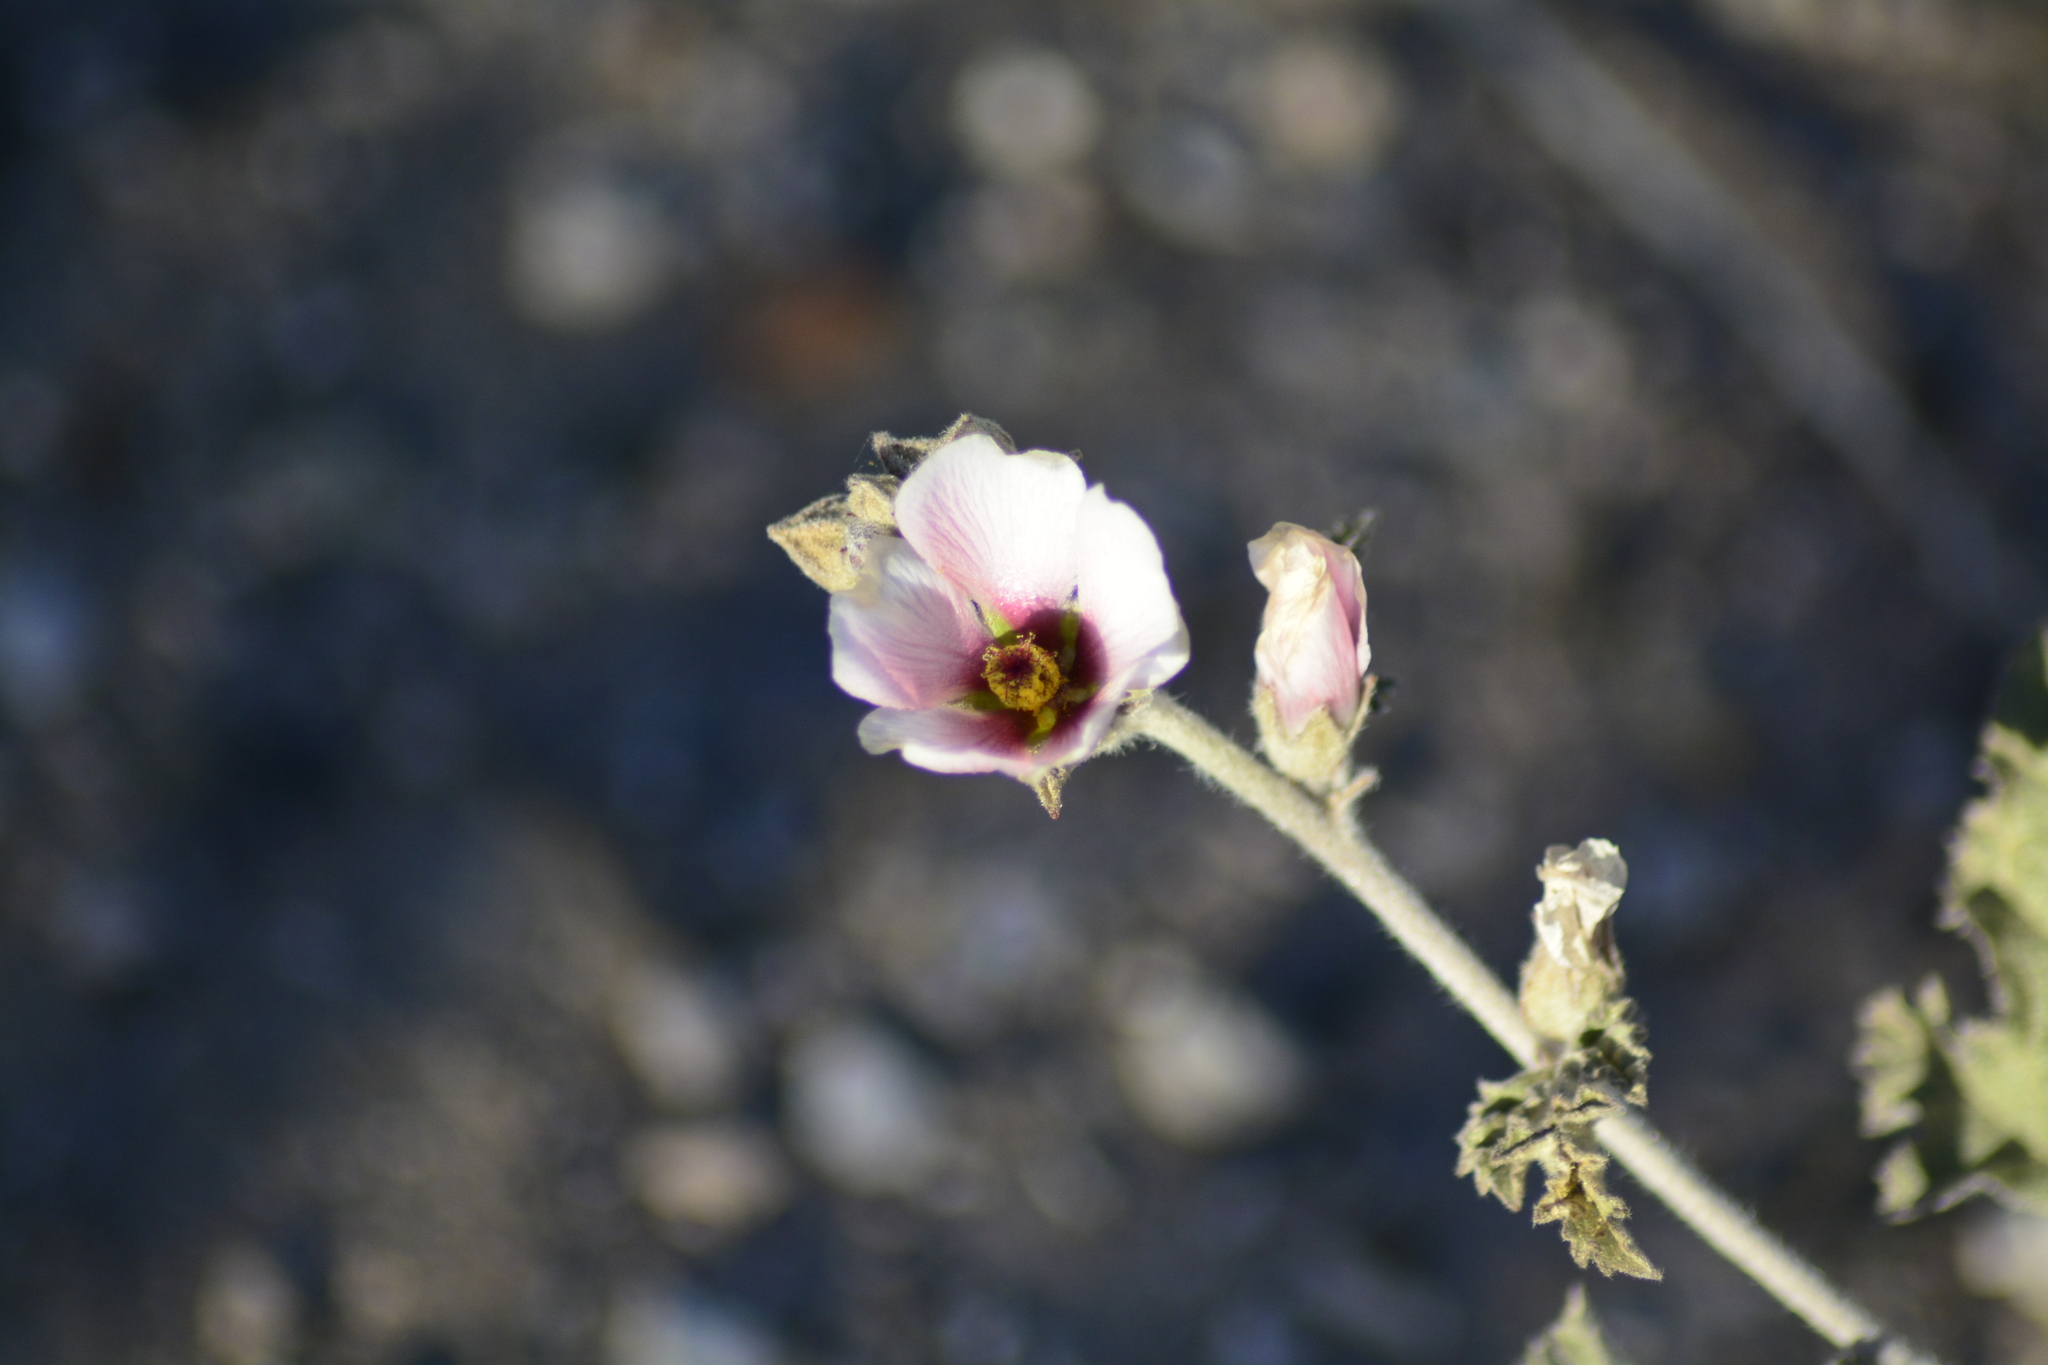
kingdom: Plantae
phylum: Tracheophyta
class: Magnoliopsida
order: Malvales
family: Malvaceae
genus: Sphaeralcea
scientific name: Sphaeralcea mendocina
